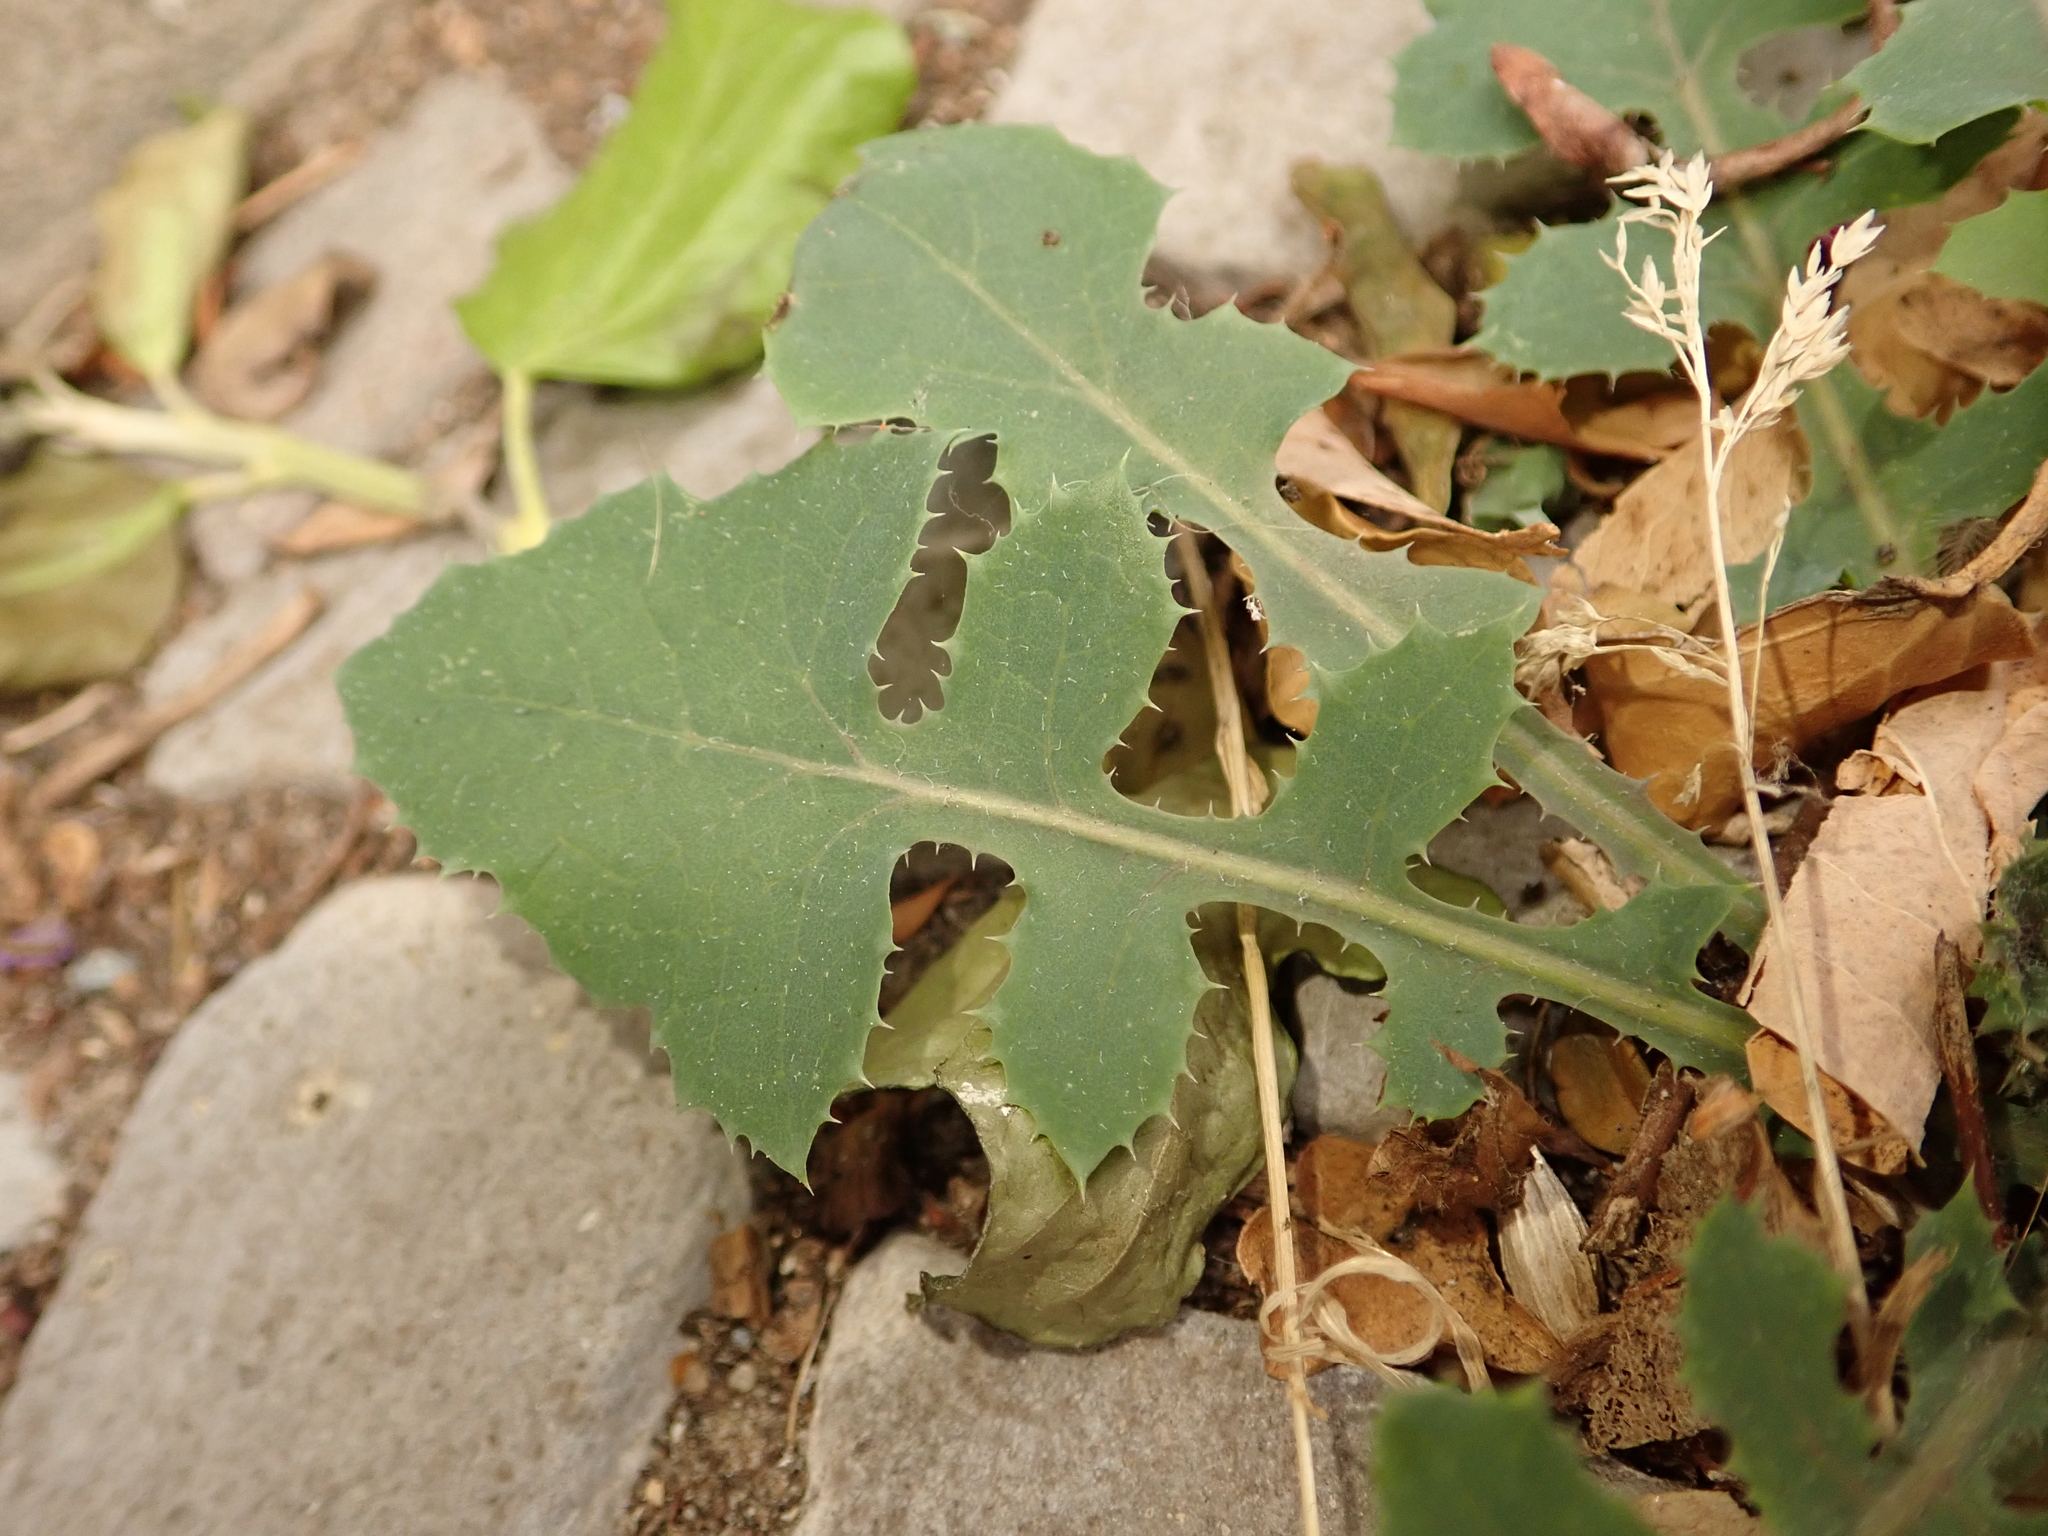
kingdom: Plantae
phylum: Tracheophyta
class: Magnoliopsida
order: Asterales
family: Asteraceae
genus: Sonchus
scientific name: Sonchus oleraceus
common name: Common sowthistle
